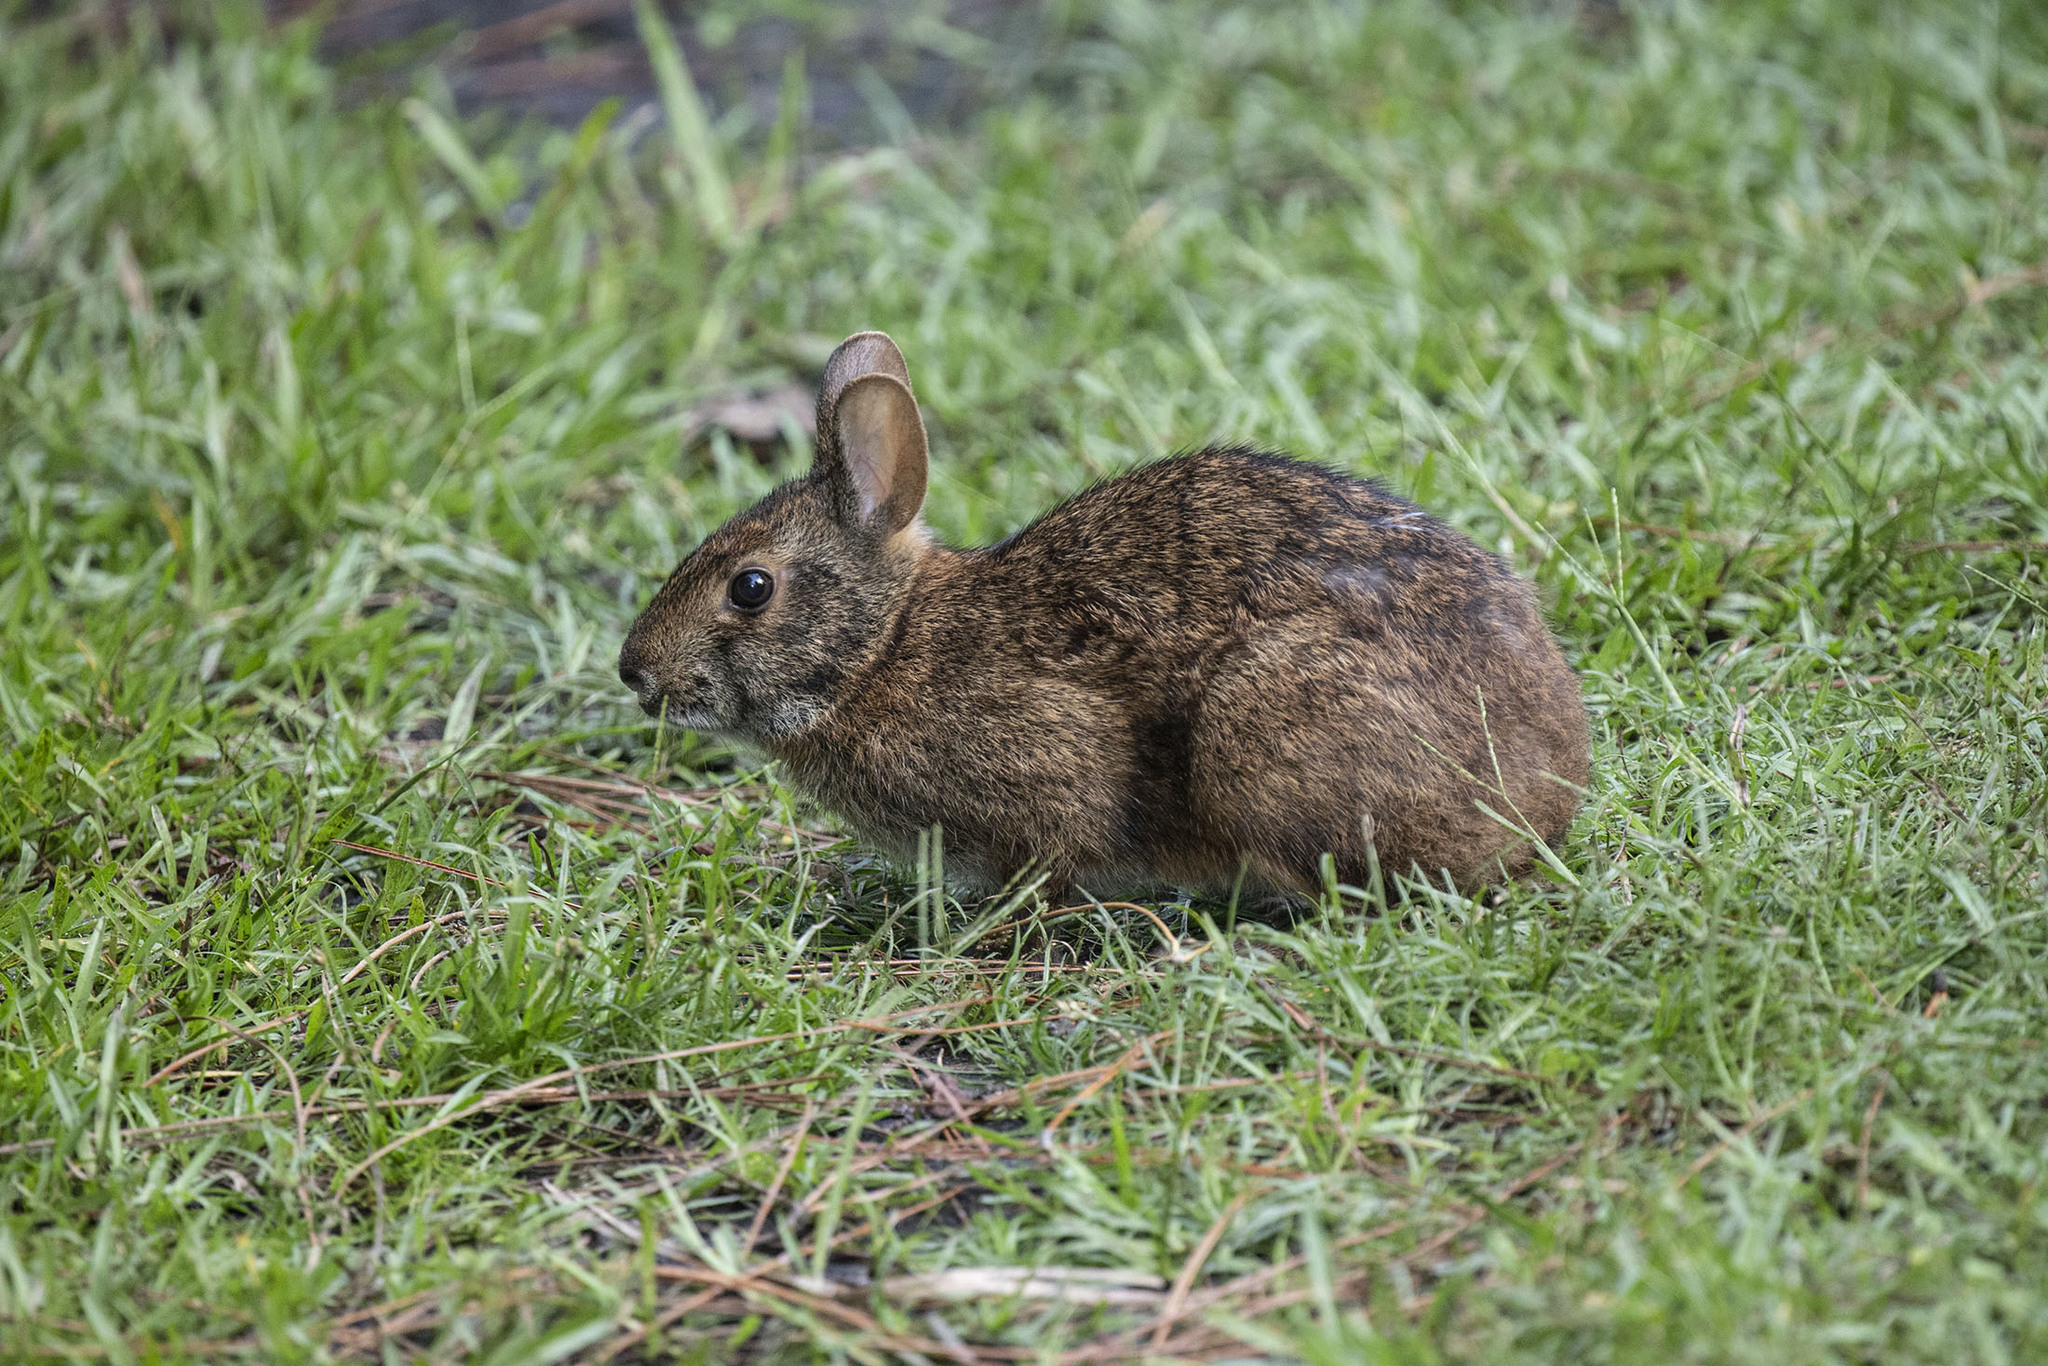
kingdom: Animalia
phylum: Chordata
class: Mammalia
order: Lagomorpha
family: Leporidae
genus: Sylvilagus
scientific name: Sylvilagus palustris
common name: Marsh rabbit
